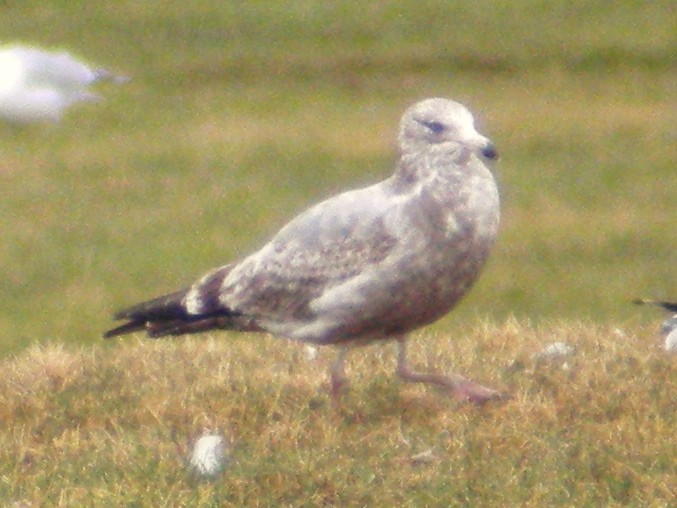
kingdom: Animalia
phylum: Chordata
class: Aves
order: Charadriiformes
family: Laridae
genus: Larus
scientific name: Larus argentatus
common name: Herring gull
